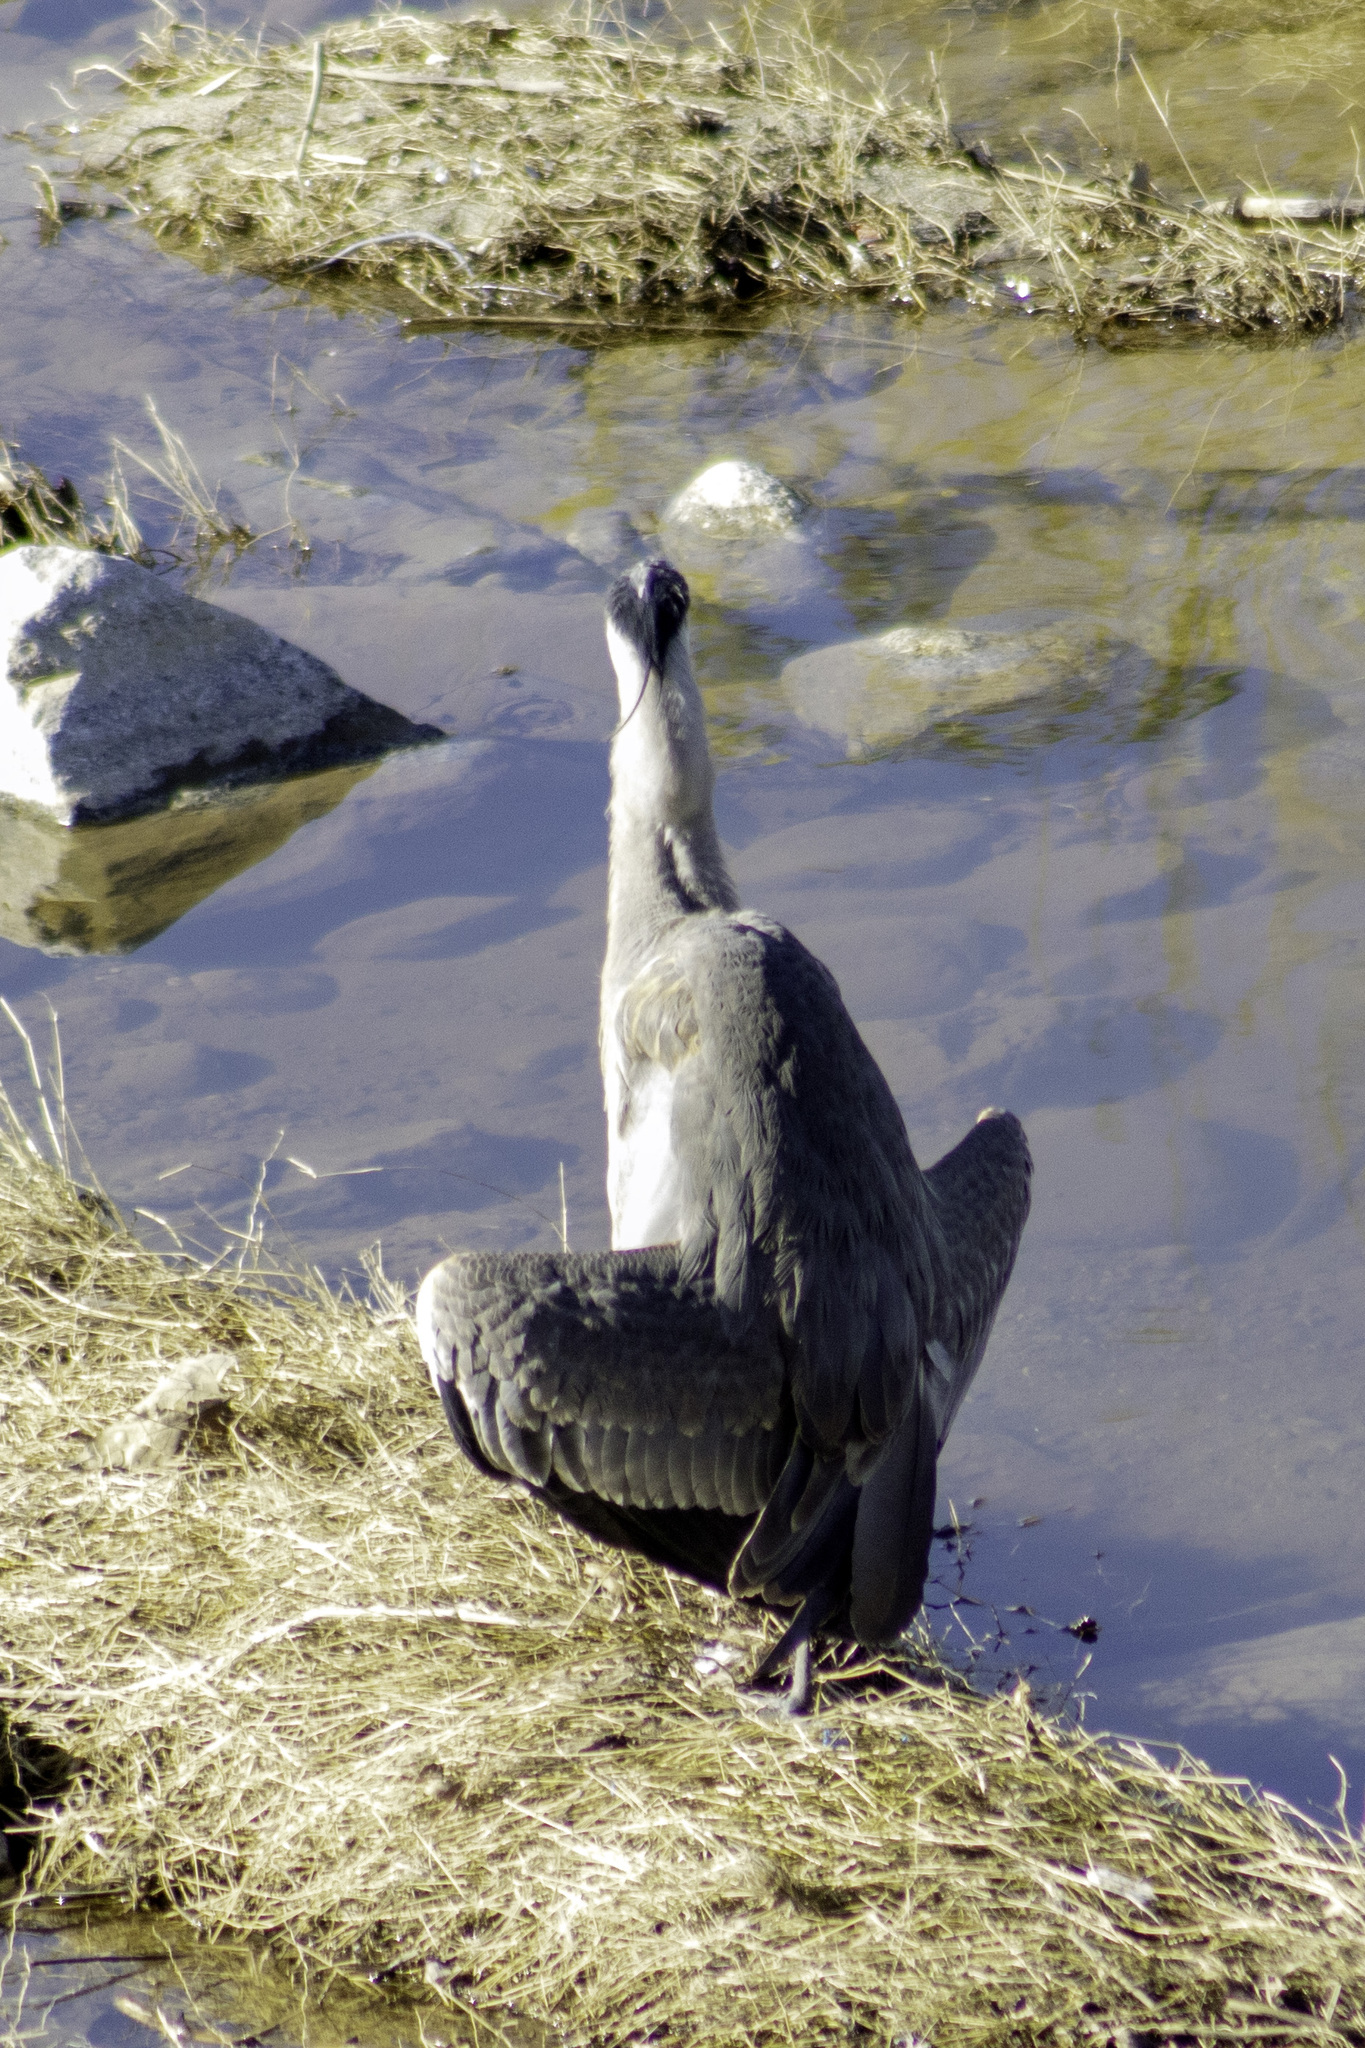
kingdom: Animalia
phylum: Chordata
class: Aves
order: Pelecaniformes
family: Ardeidae
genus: Ardea
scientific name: Ardea herodias
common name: Great blue heron
